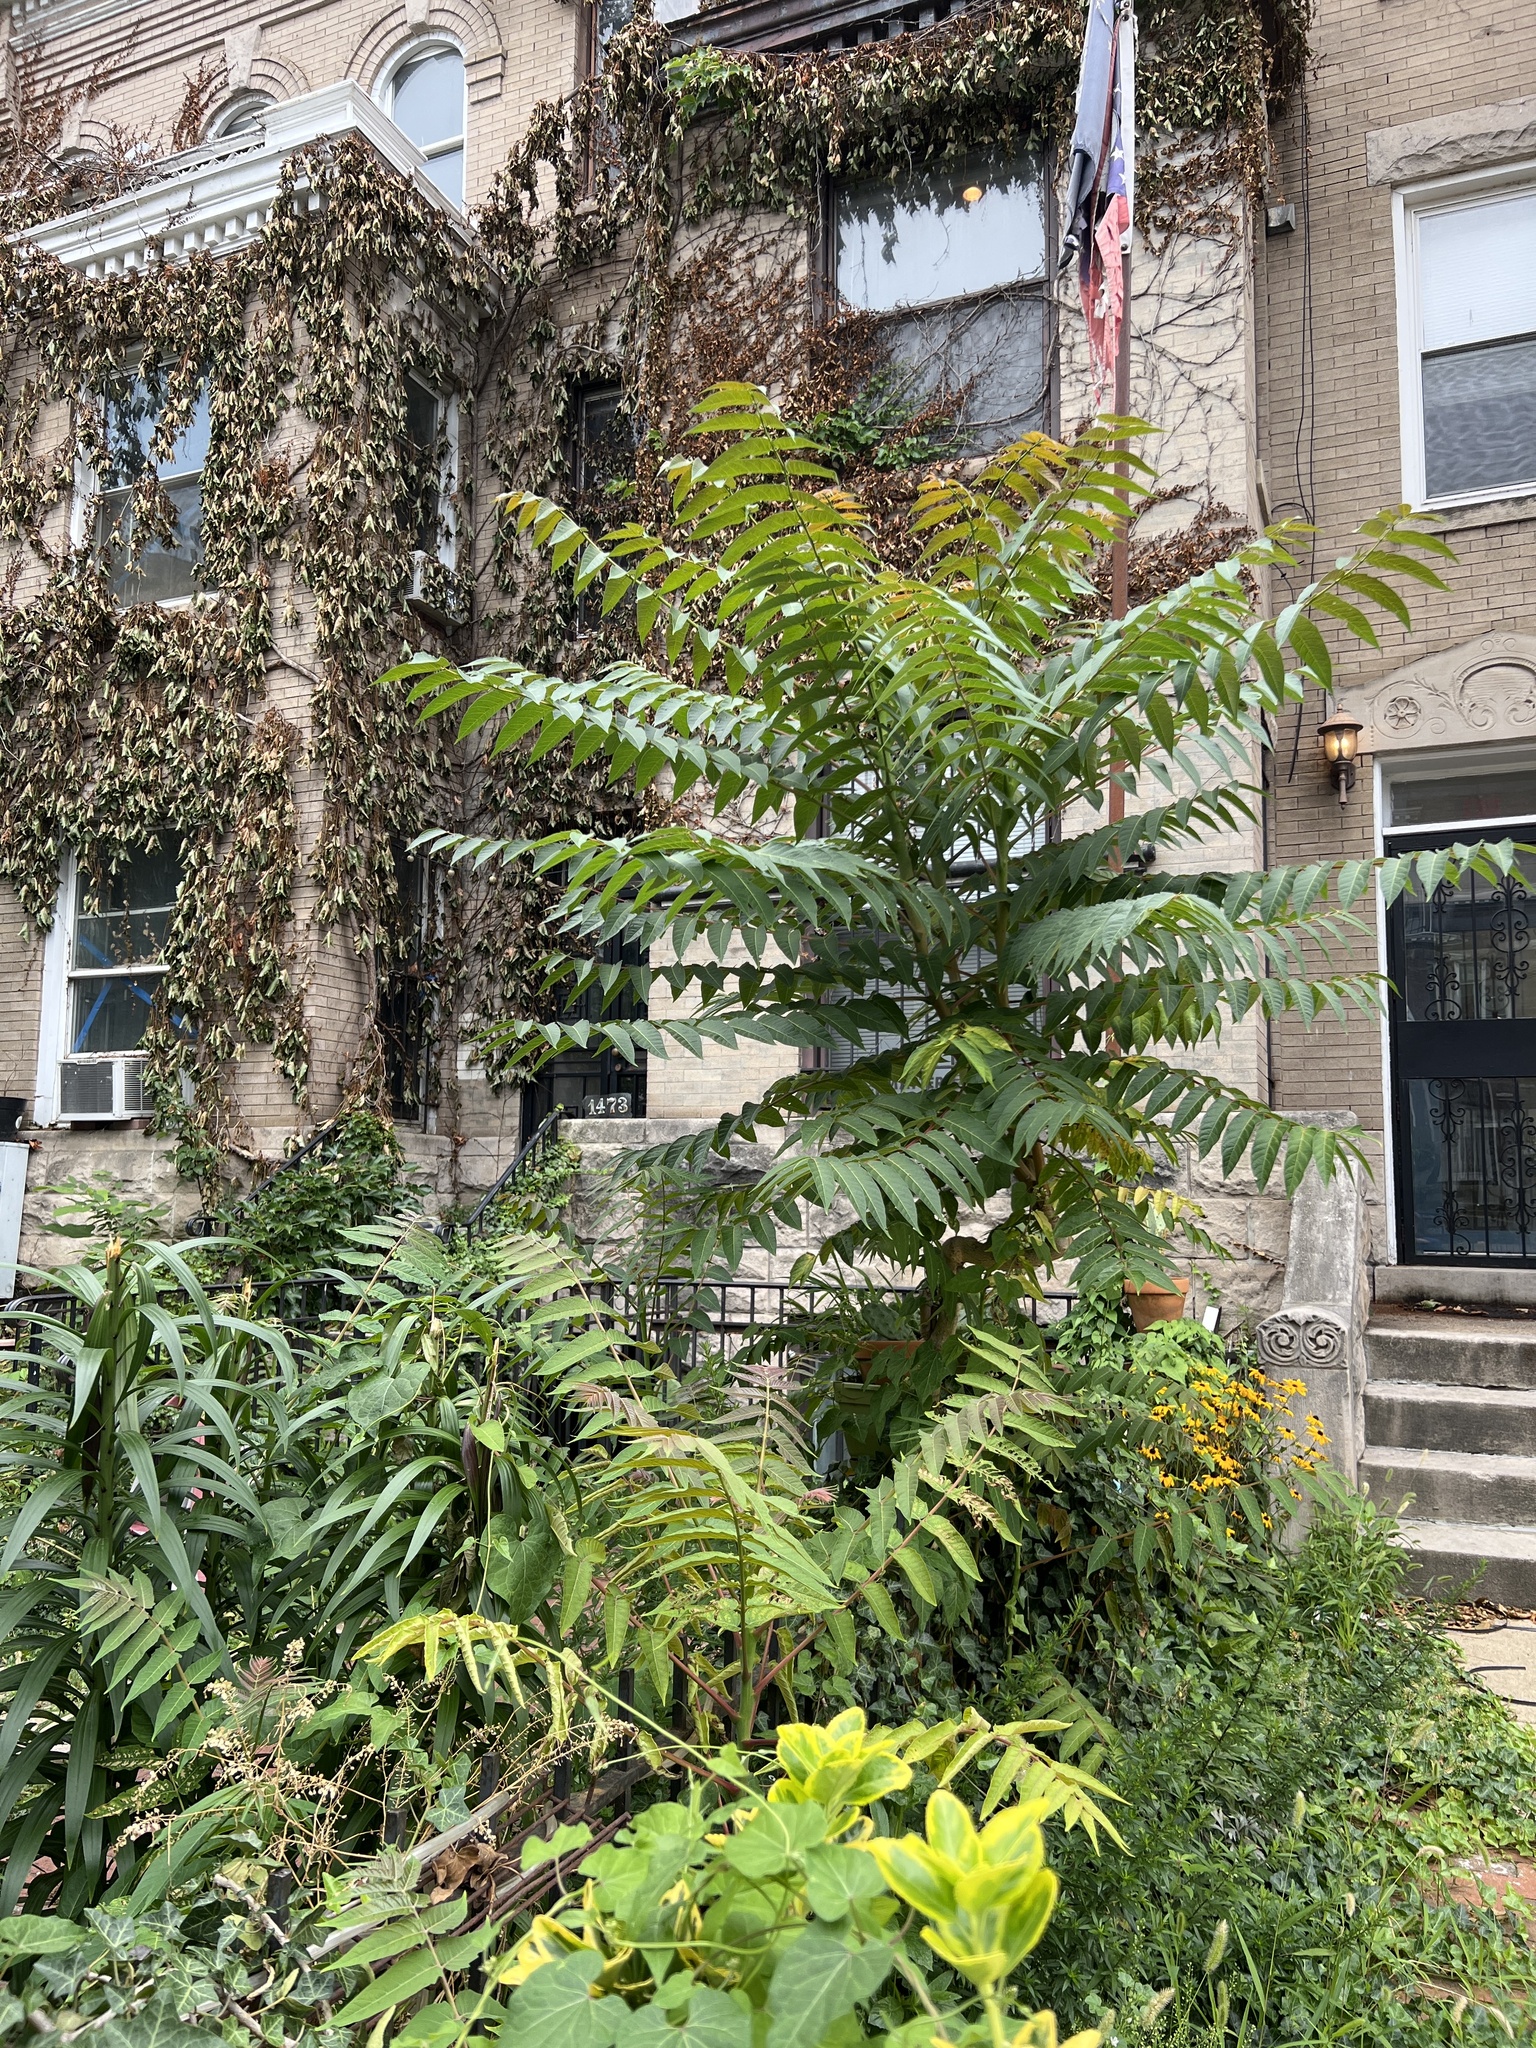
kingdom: Plantae
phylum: Tracheophyta
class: Magnoliopsida
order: Sapindales
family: Simaroubaceae
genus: Ailanthus
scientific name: Ailanthus altissima
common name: Tree-of-heaven
